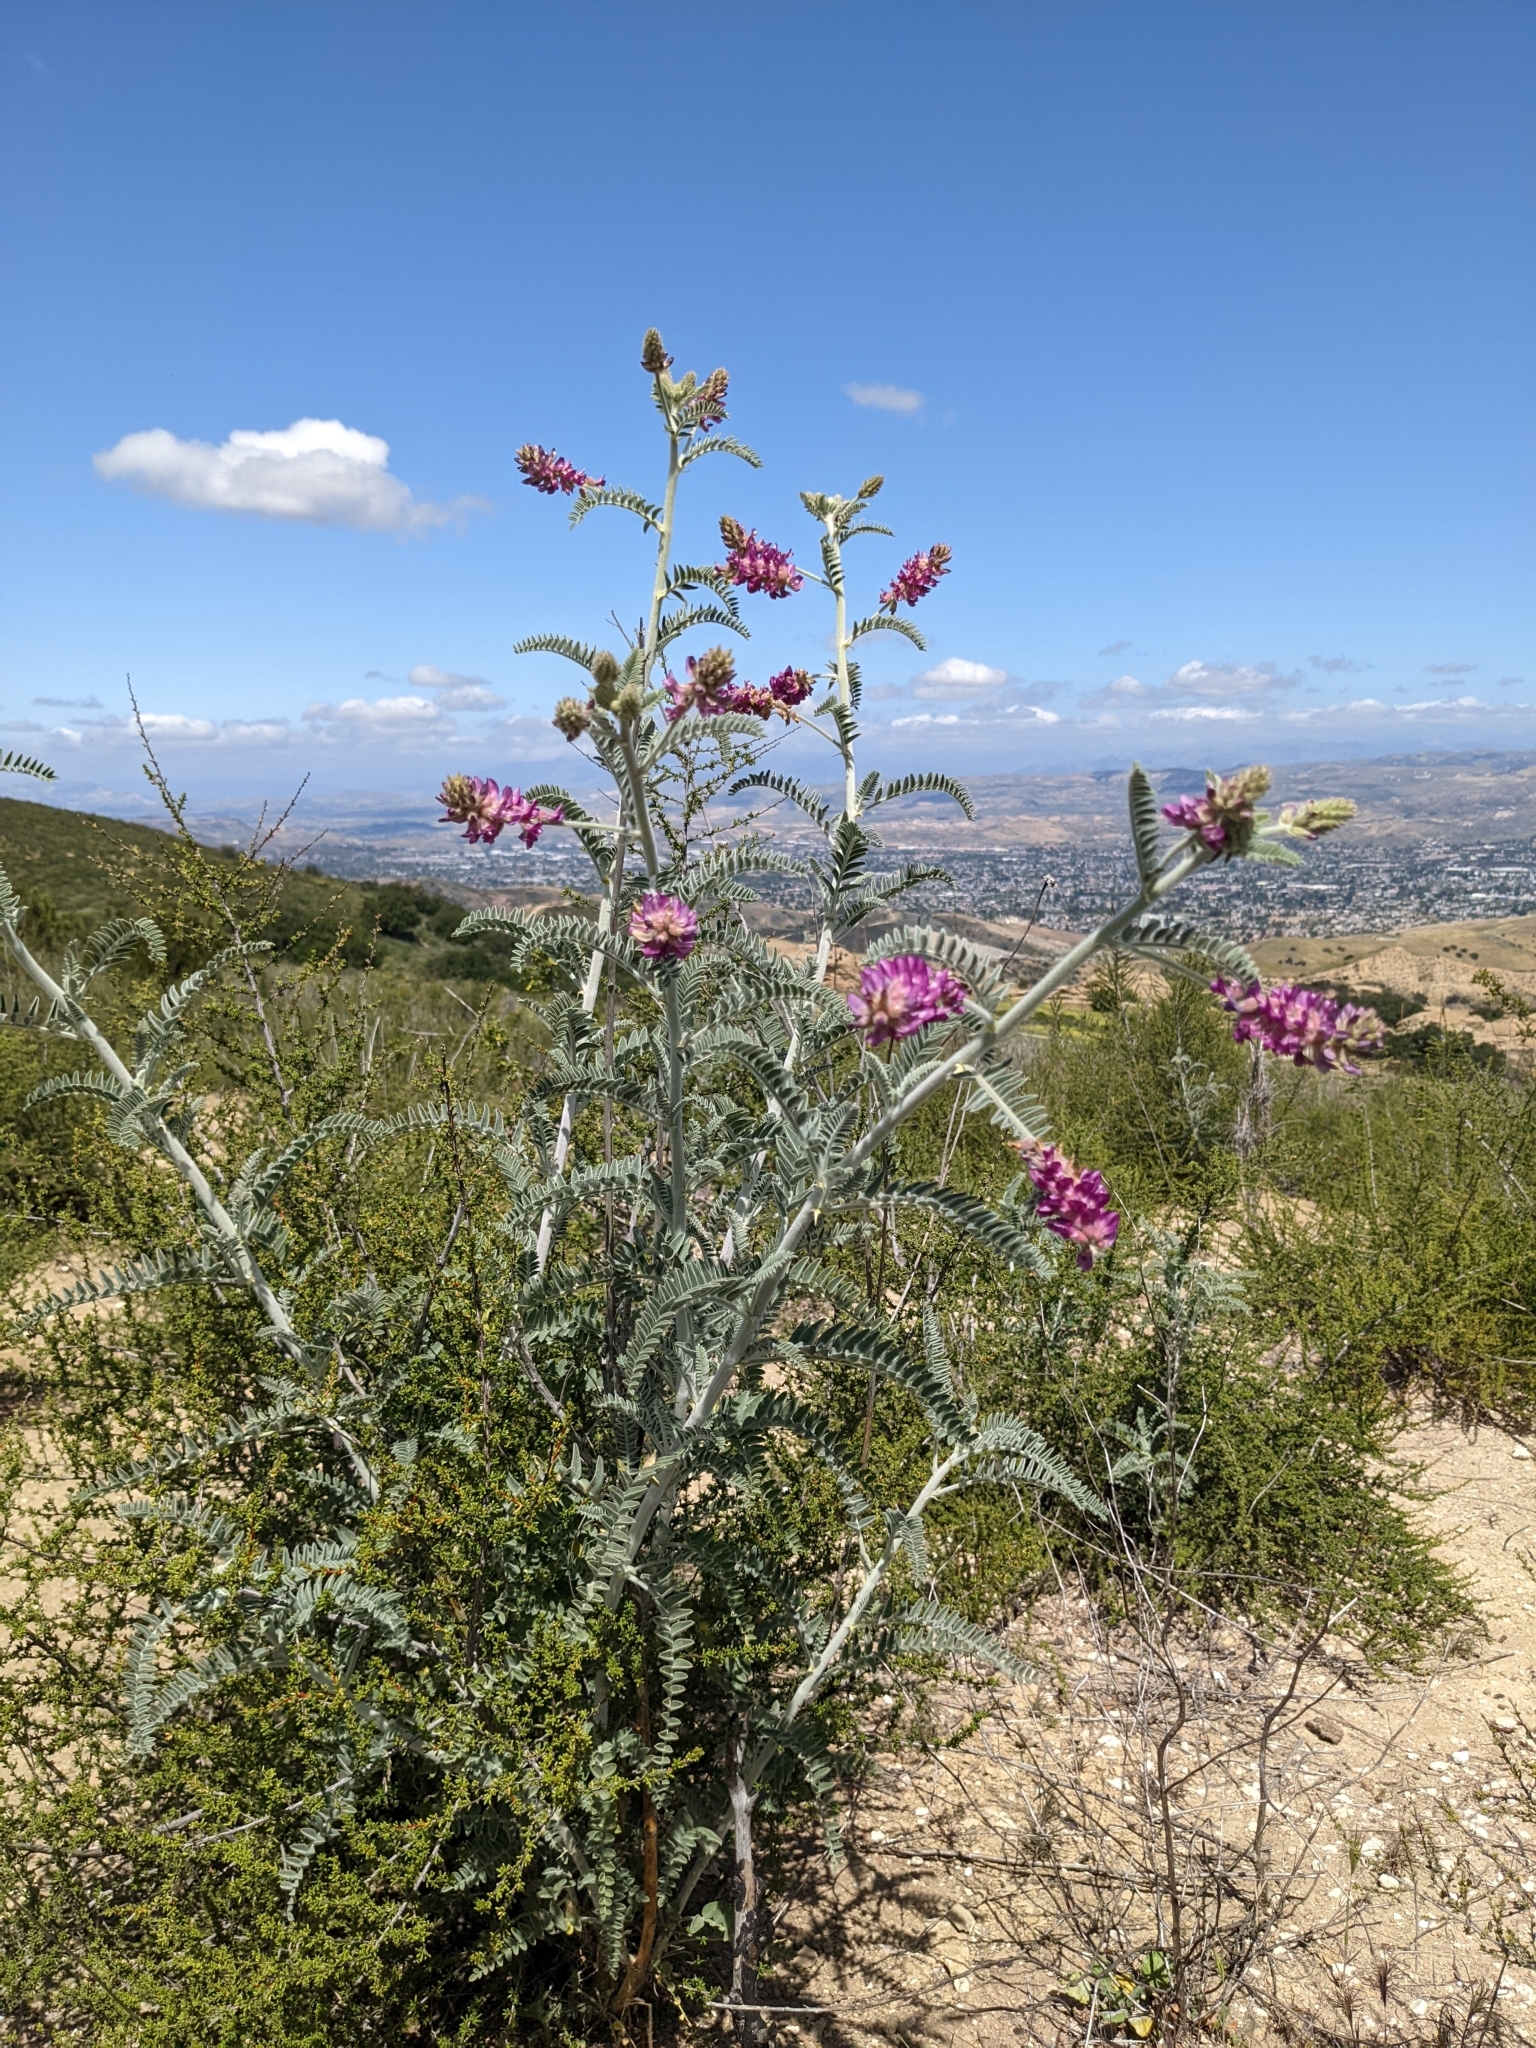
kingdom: Plantae
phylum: Tracheophyta
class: Magnoliopsida
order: Fabales
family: Fabaceae
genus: Astragalus
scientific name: Astragalus brauntonii
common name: Braunton's milk-vetch
